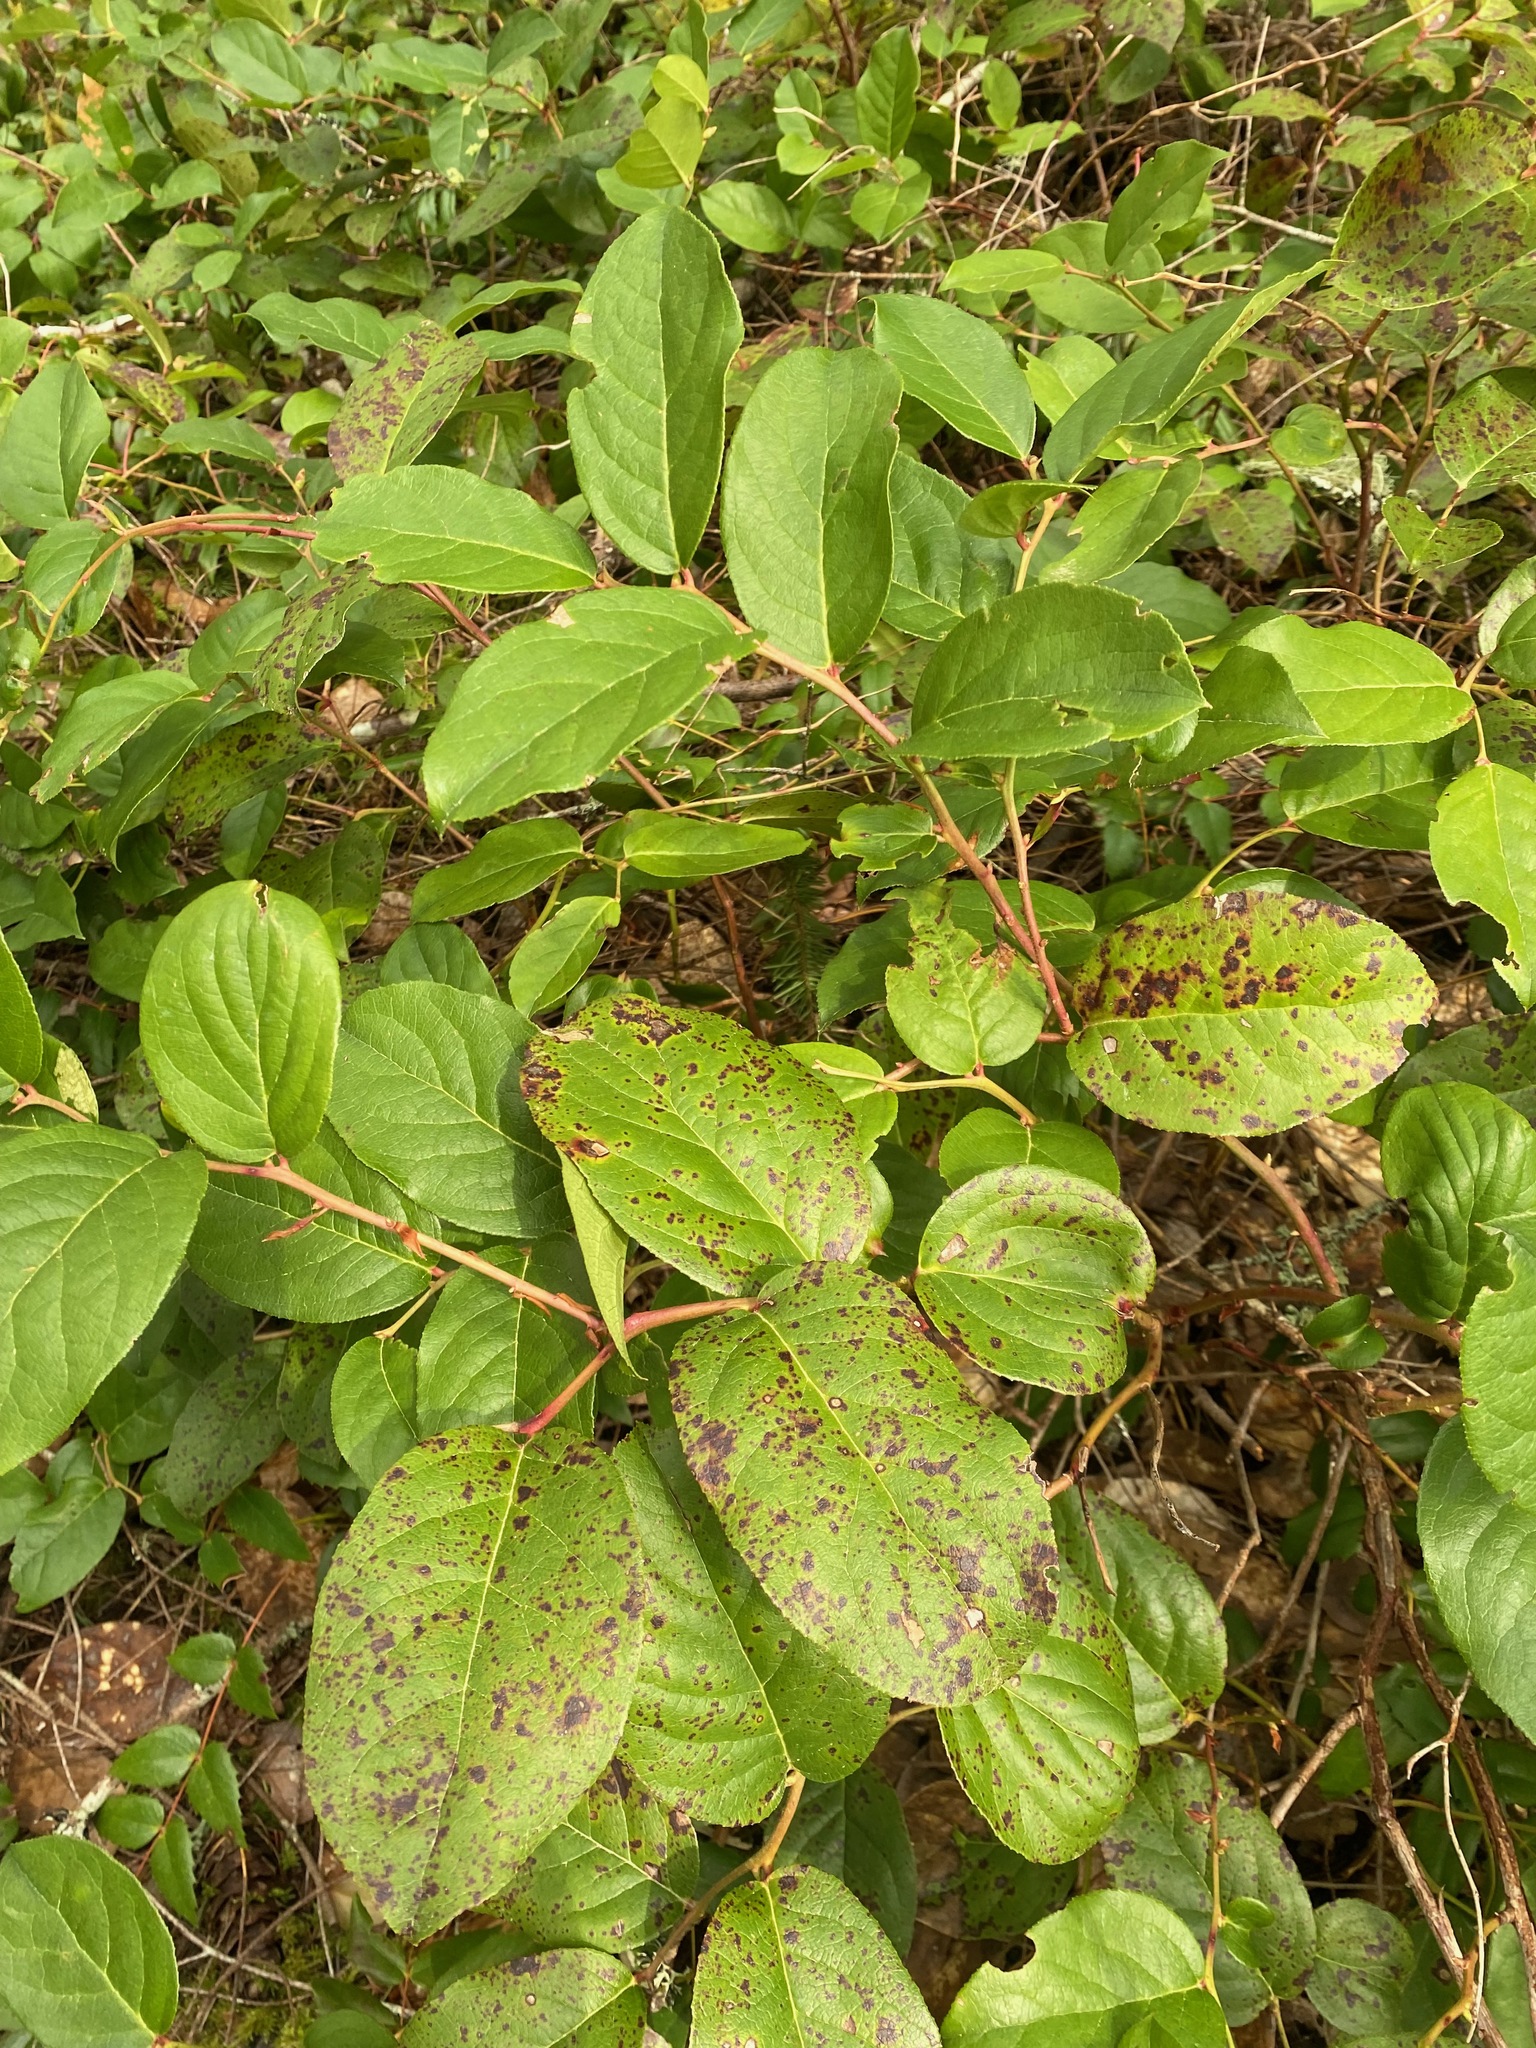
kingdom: Plantae
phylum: Tracheophyta
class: Magnoliopsida
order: Ericales
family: Ericaceae
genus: Gaultheria
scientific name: Gaultheria shallon
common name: Shallon
